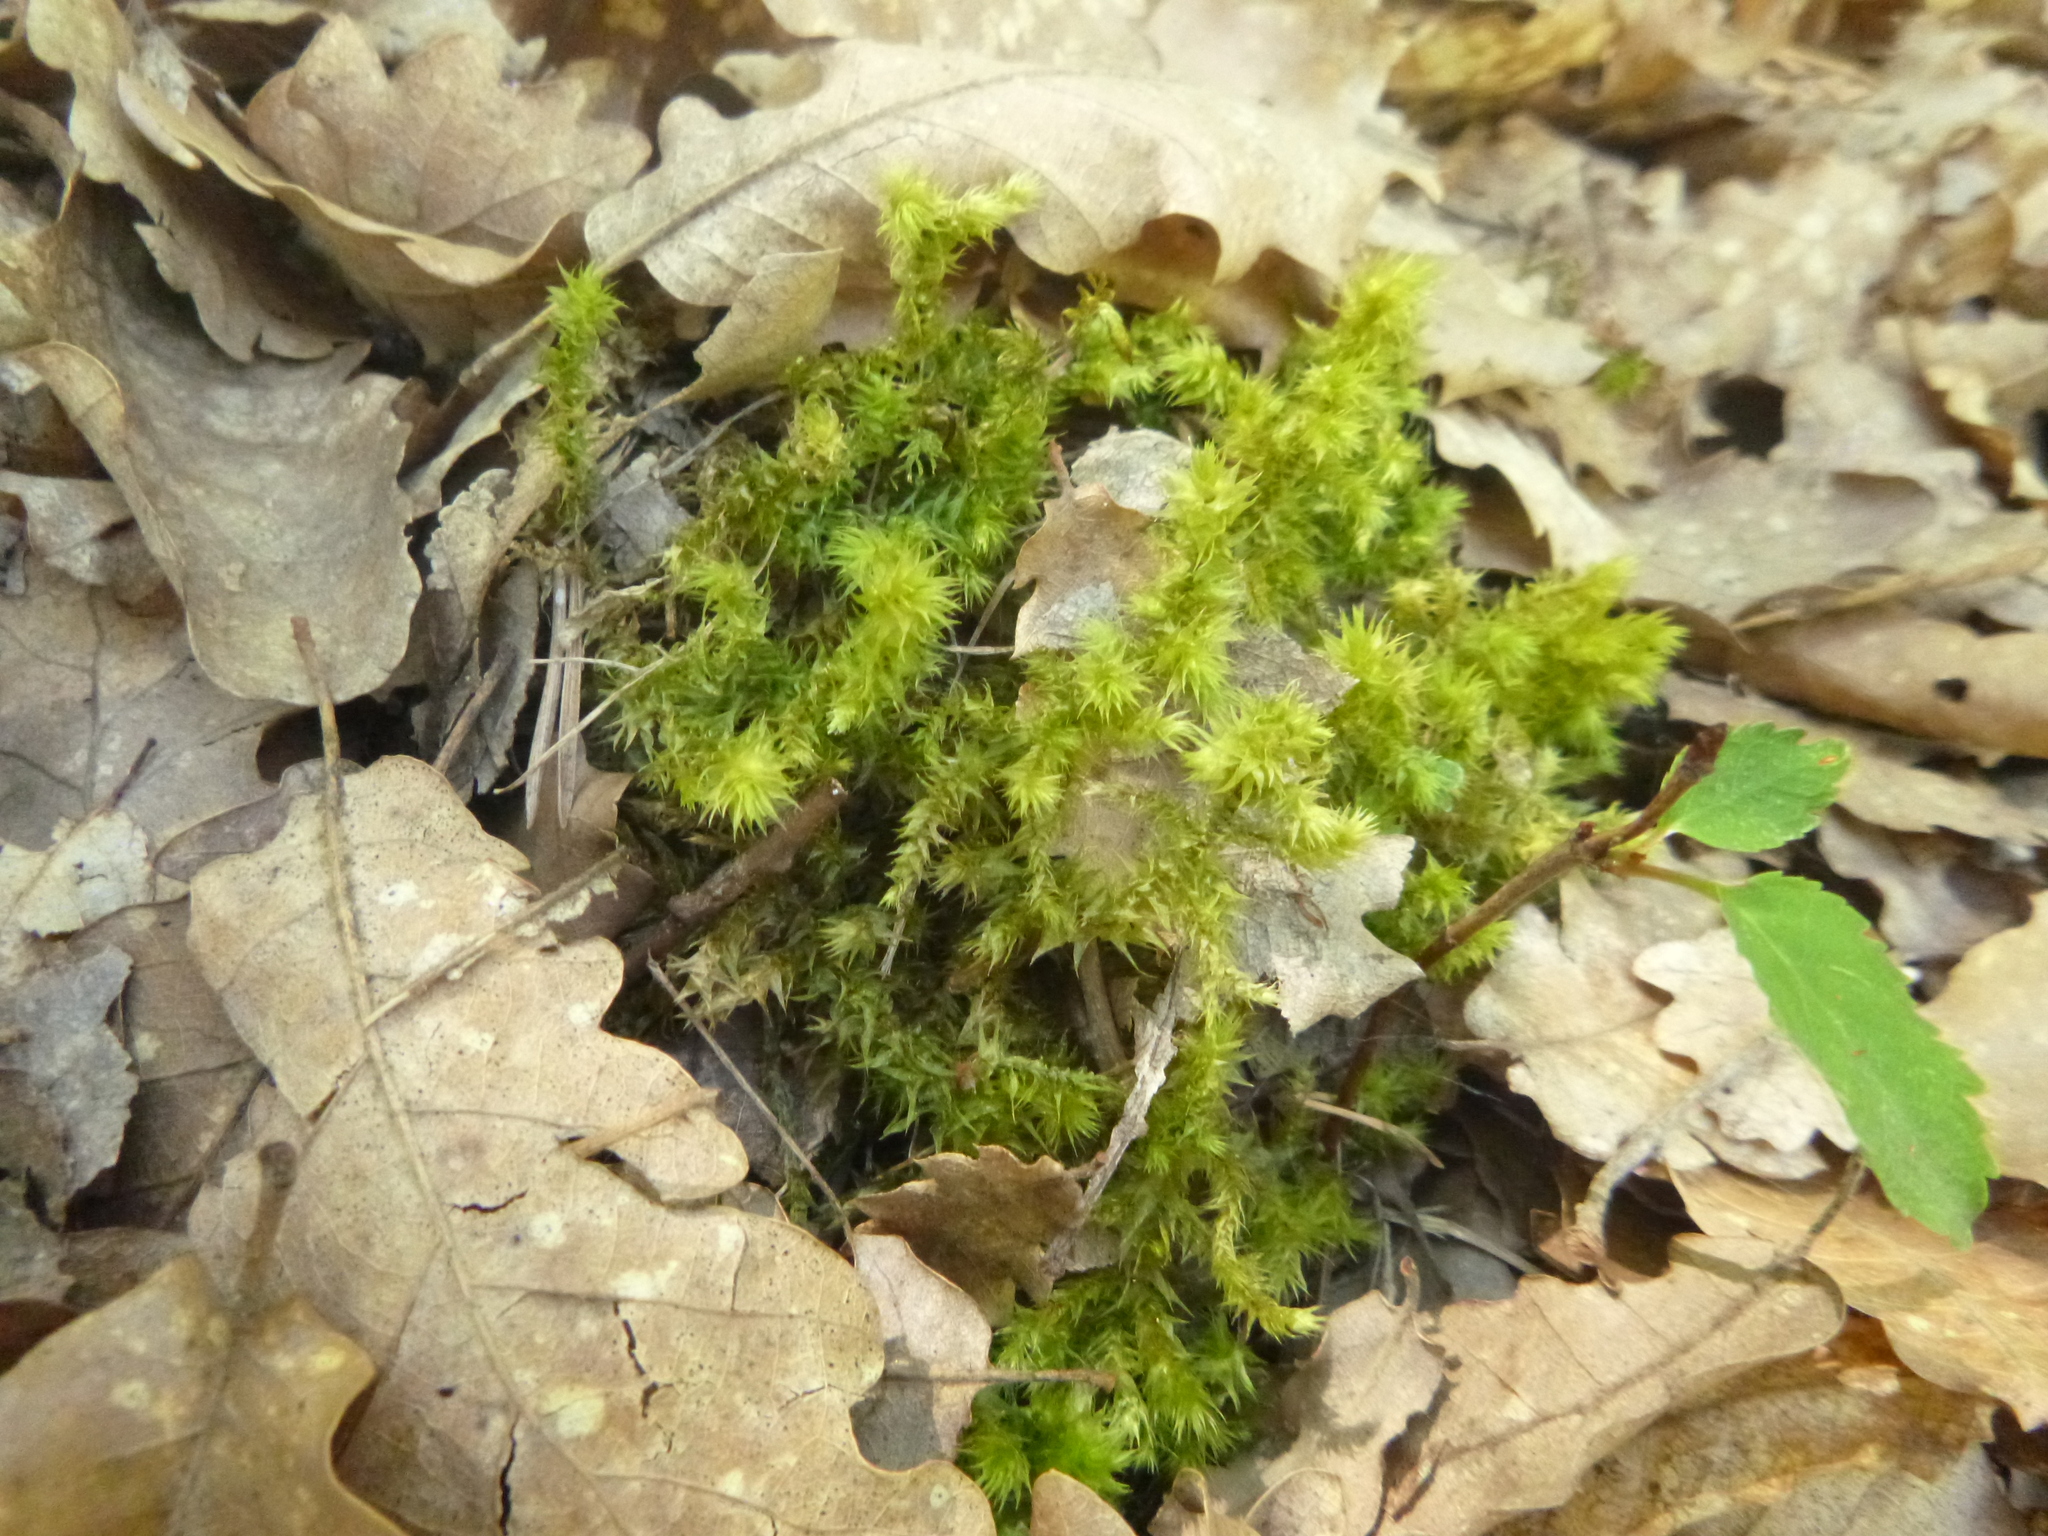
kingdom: Plantae
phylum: Bryophyta
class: Bryopsida
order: Hypnales
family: Hylocomiaceae
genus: Hylocomiadelphus
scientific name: Hylocomiadelphus triquetrus
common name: Rough goose neck moss
